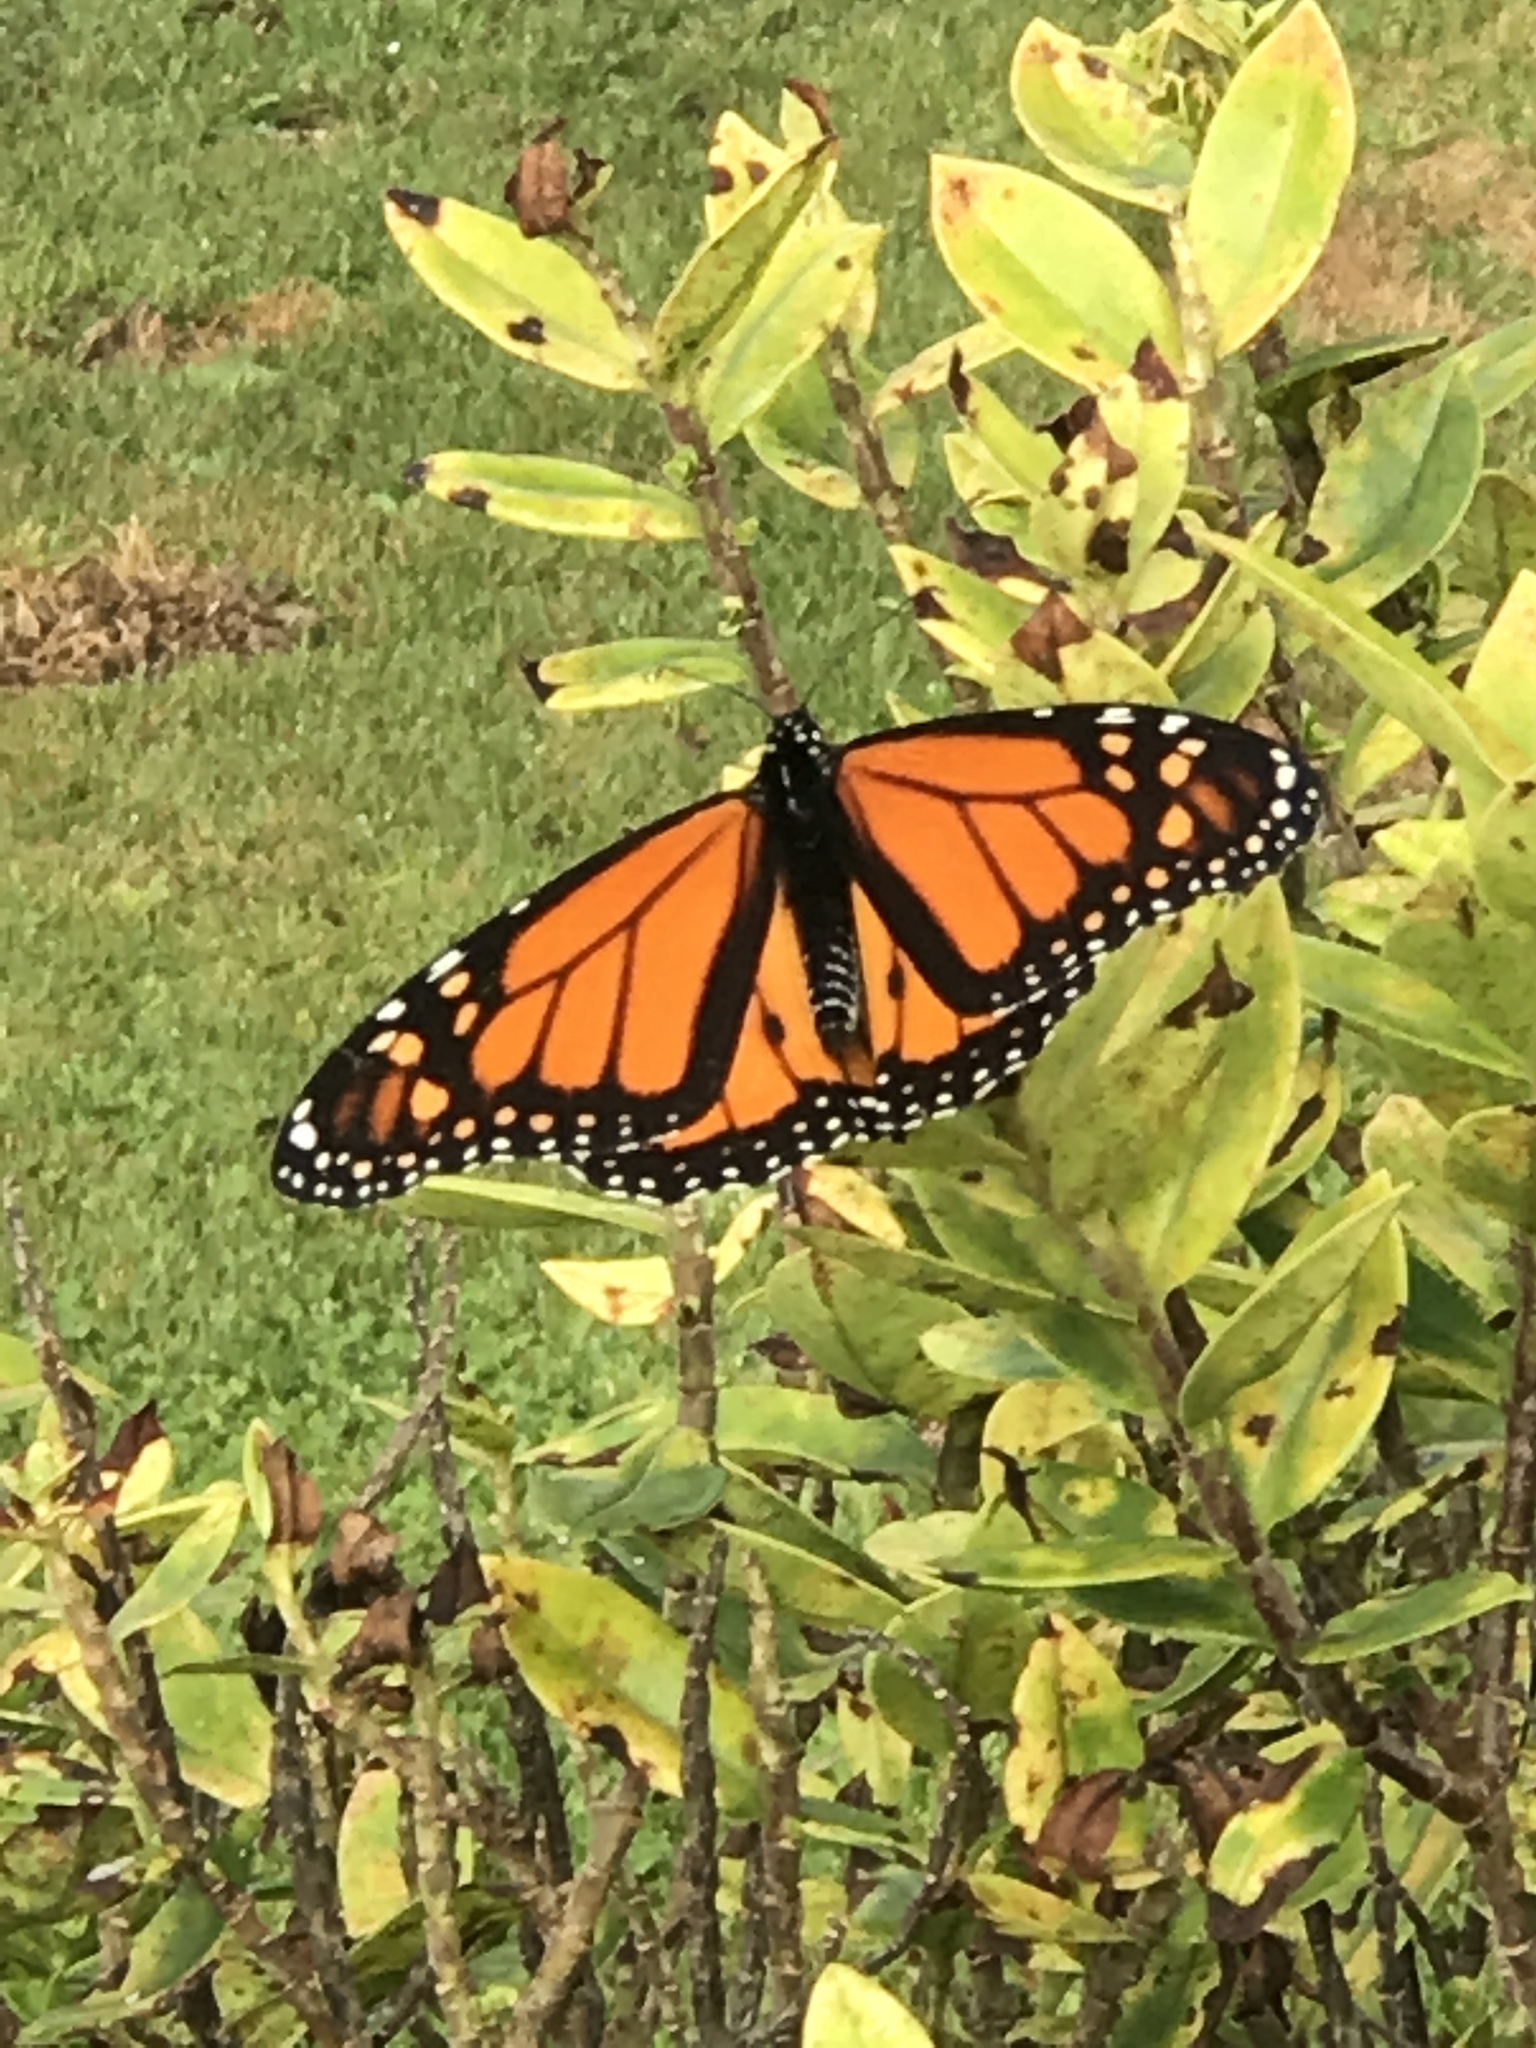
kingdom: Animalia
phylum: Arthropoda
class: Insecta
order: Lepidoptera
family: Nymphalidae
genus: Danaus
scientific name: Danaus plexippus
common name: Monarch
